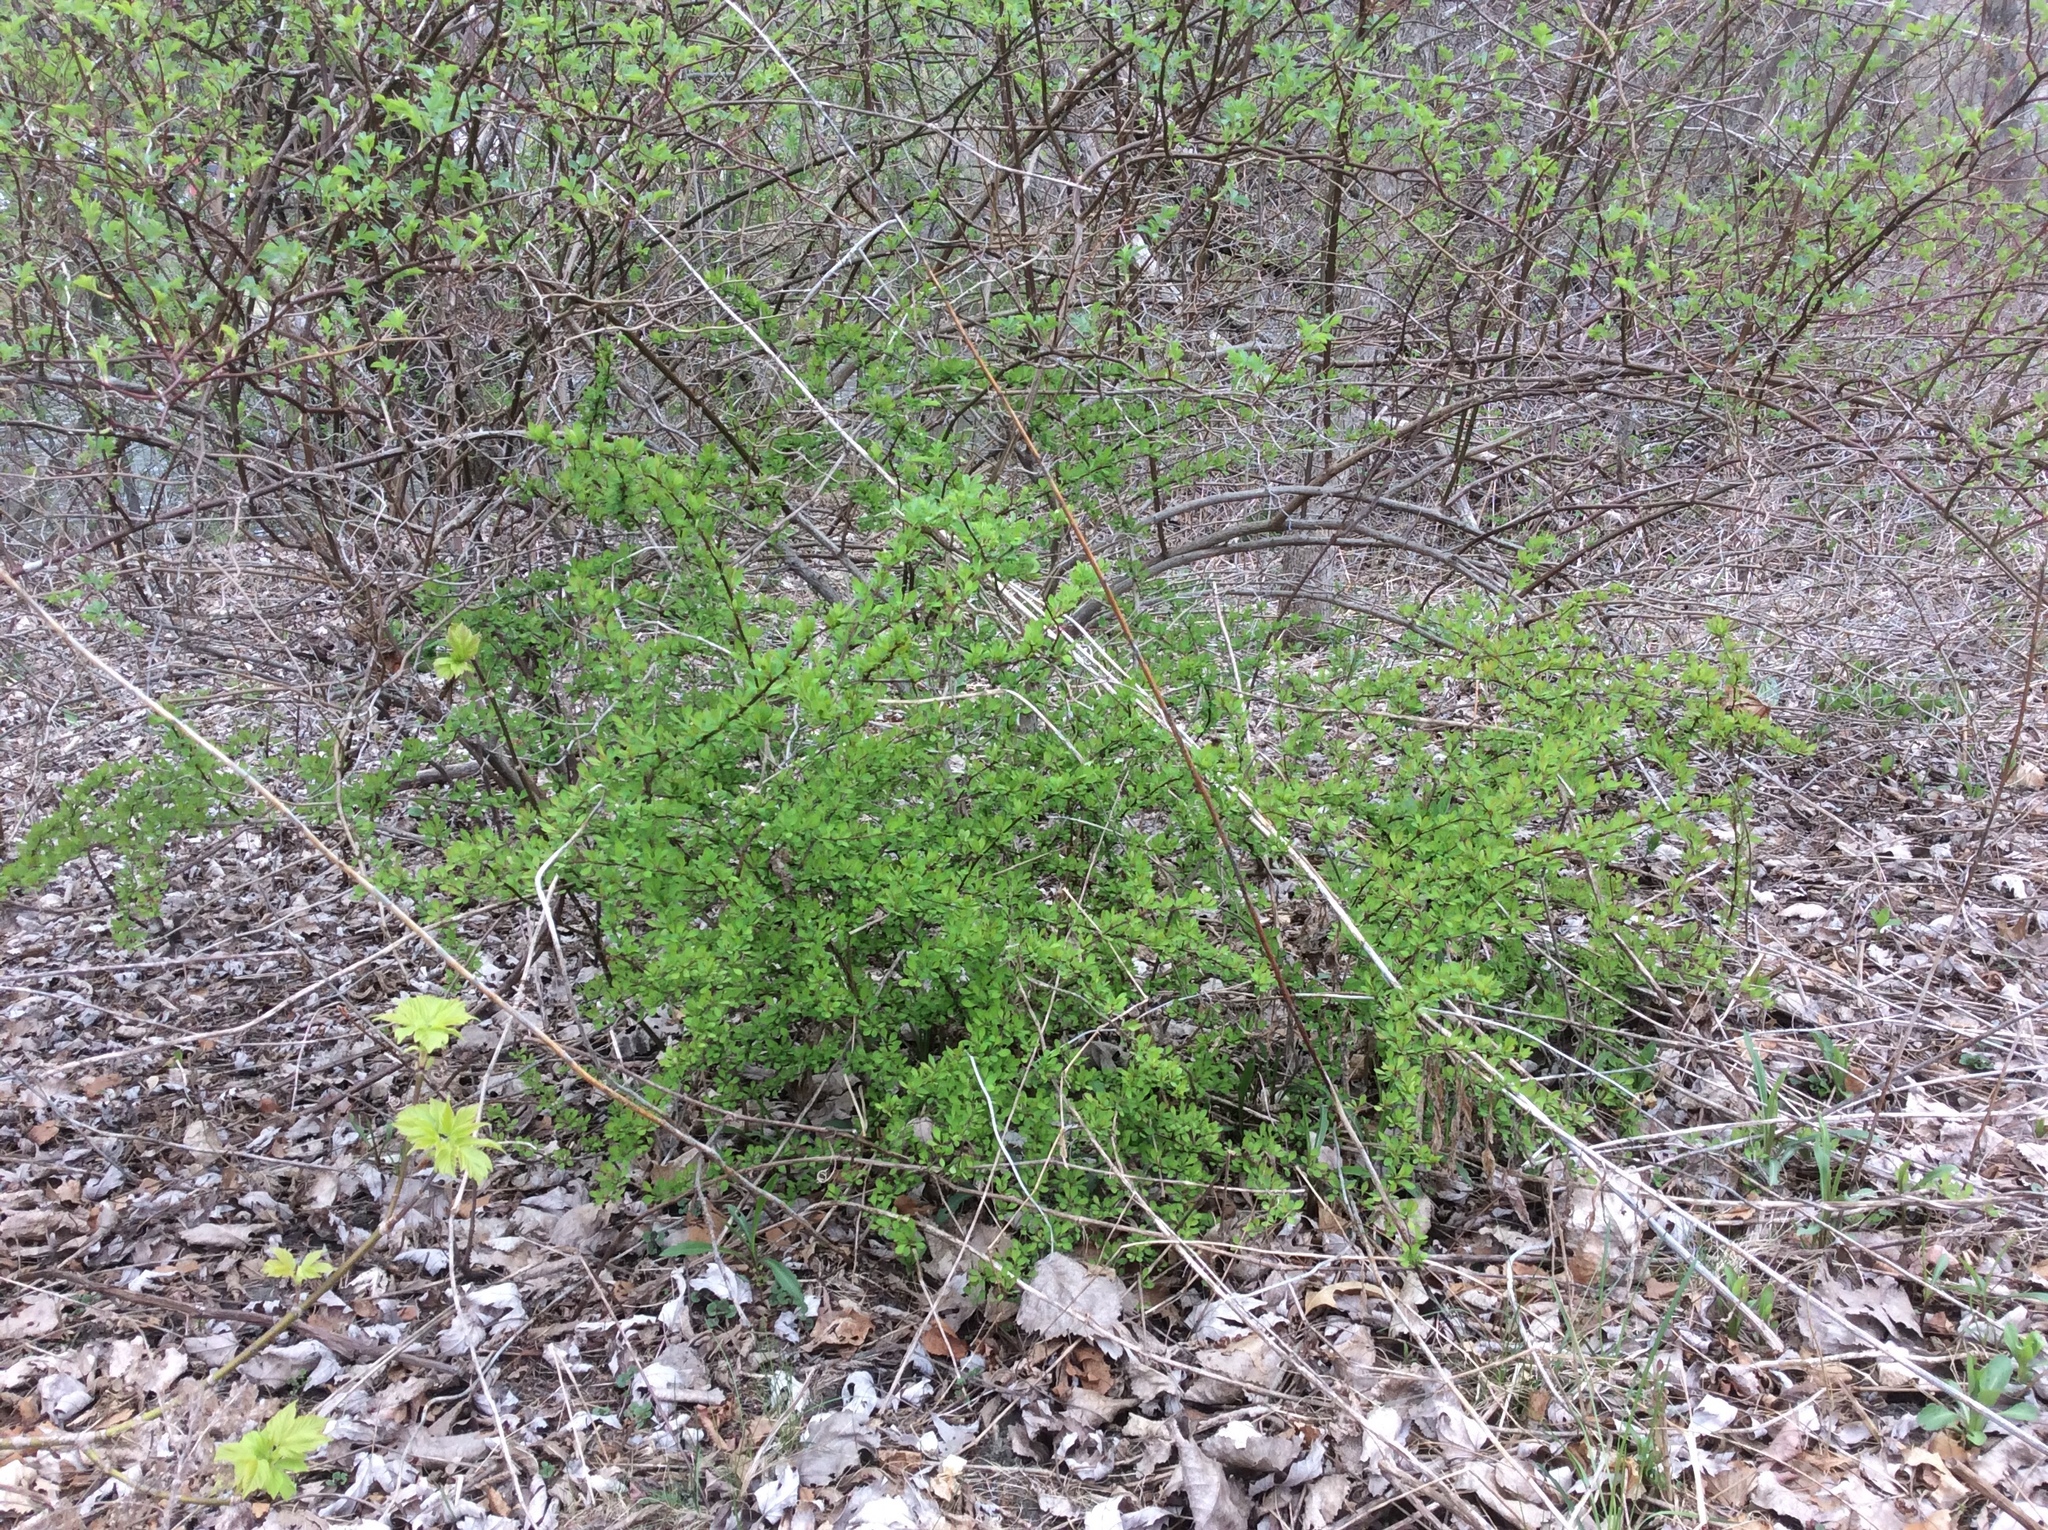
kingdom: Plantae
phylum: Tracheophyta
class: Magnoliopsida
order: Ranunculales
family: Berberidaceae
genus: Berberis
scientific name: Berberis thunbergii
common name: Japanese barberry
